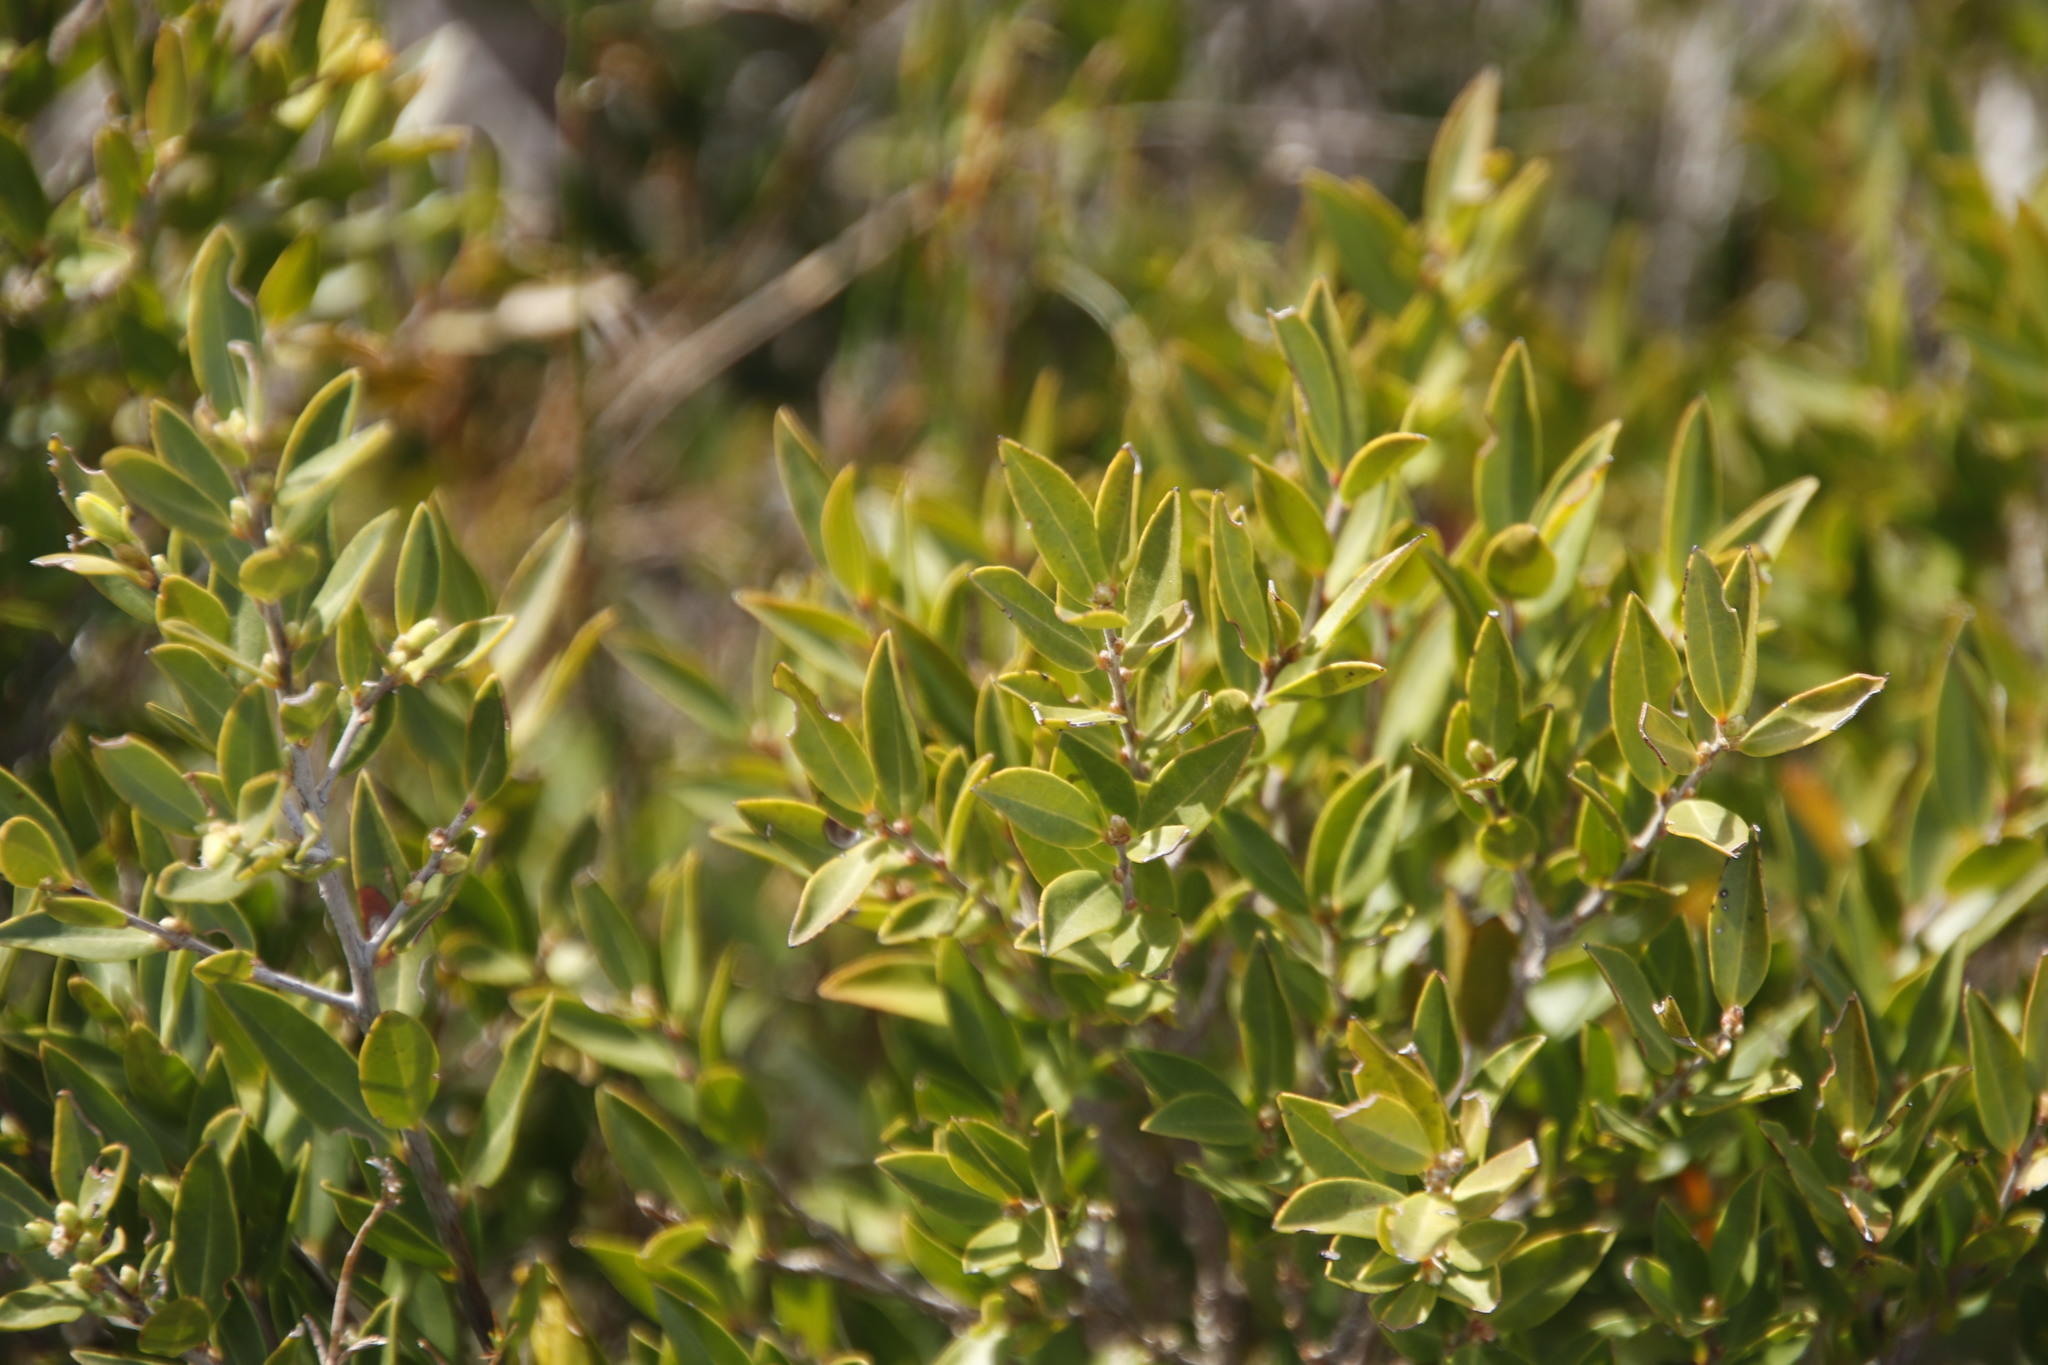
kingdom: Plantae
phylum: Tracheophyta
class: Magnoliopsida
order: Ericales
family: Ebenaceae
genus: Diospyros
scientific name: Diospyros glabra
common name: Fynbos star apple
